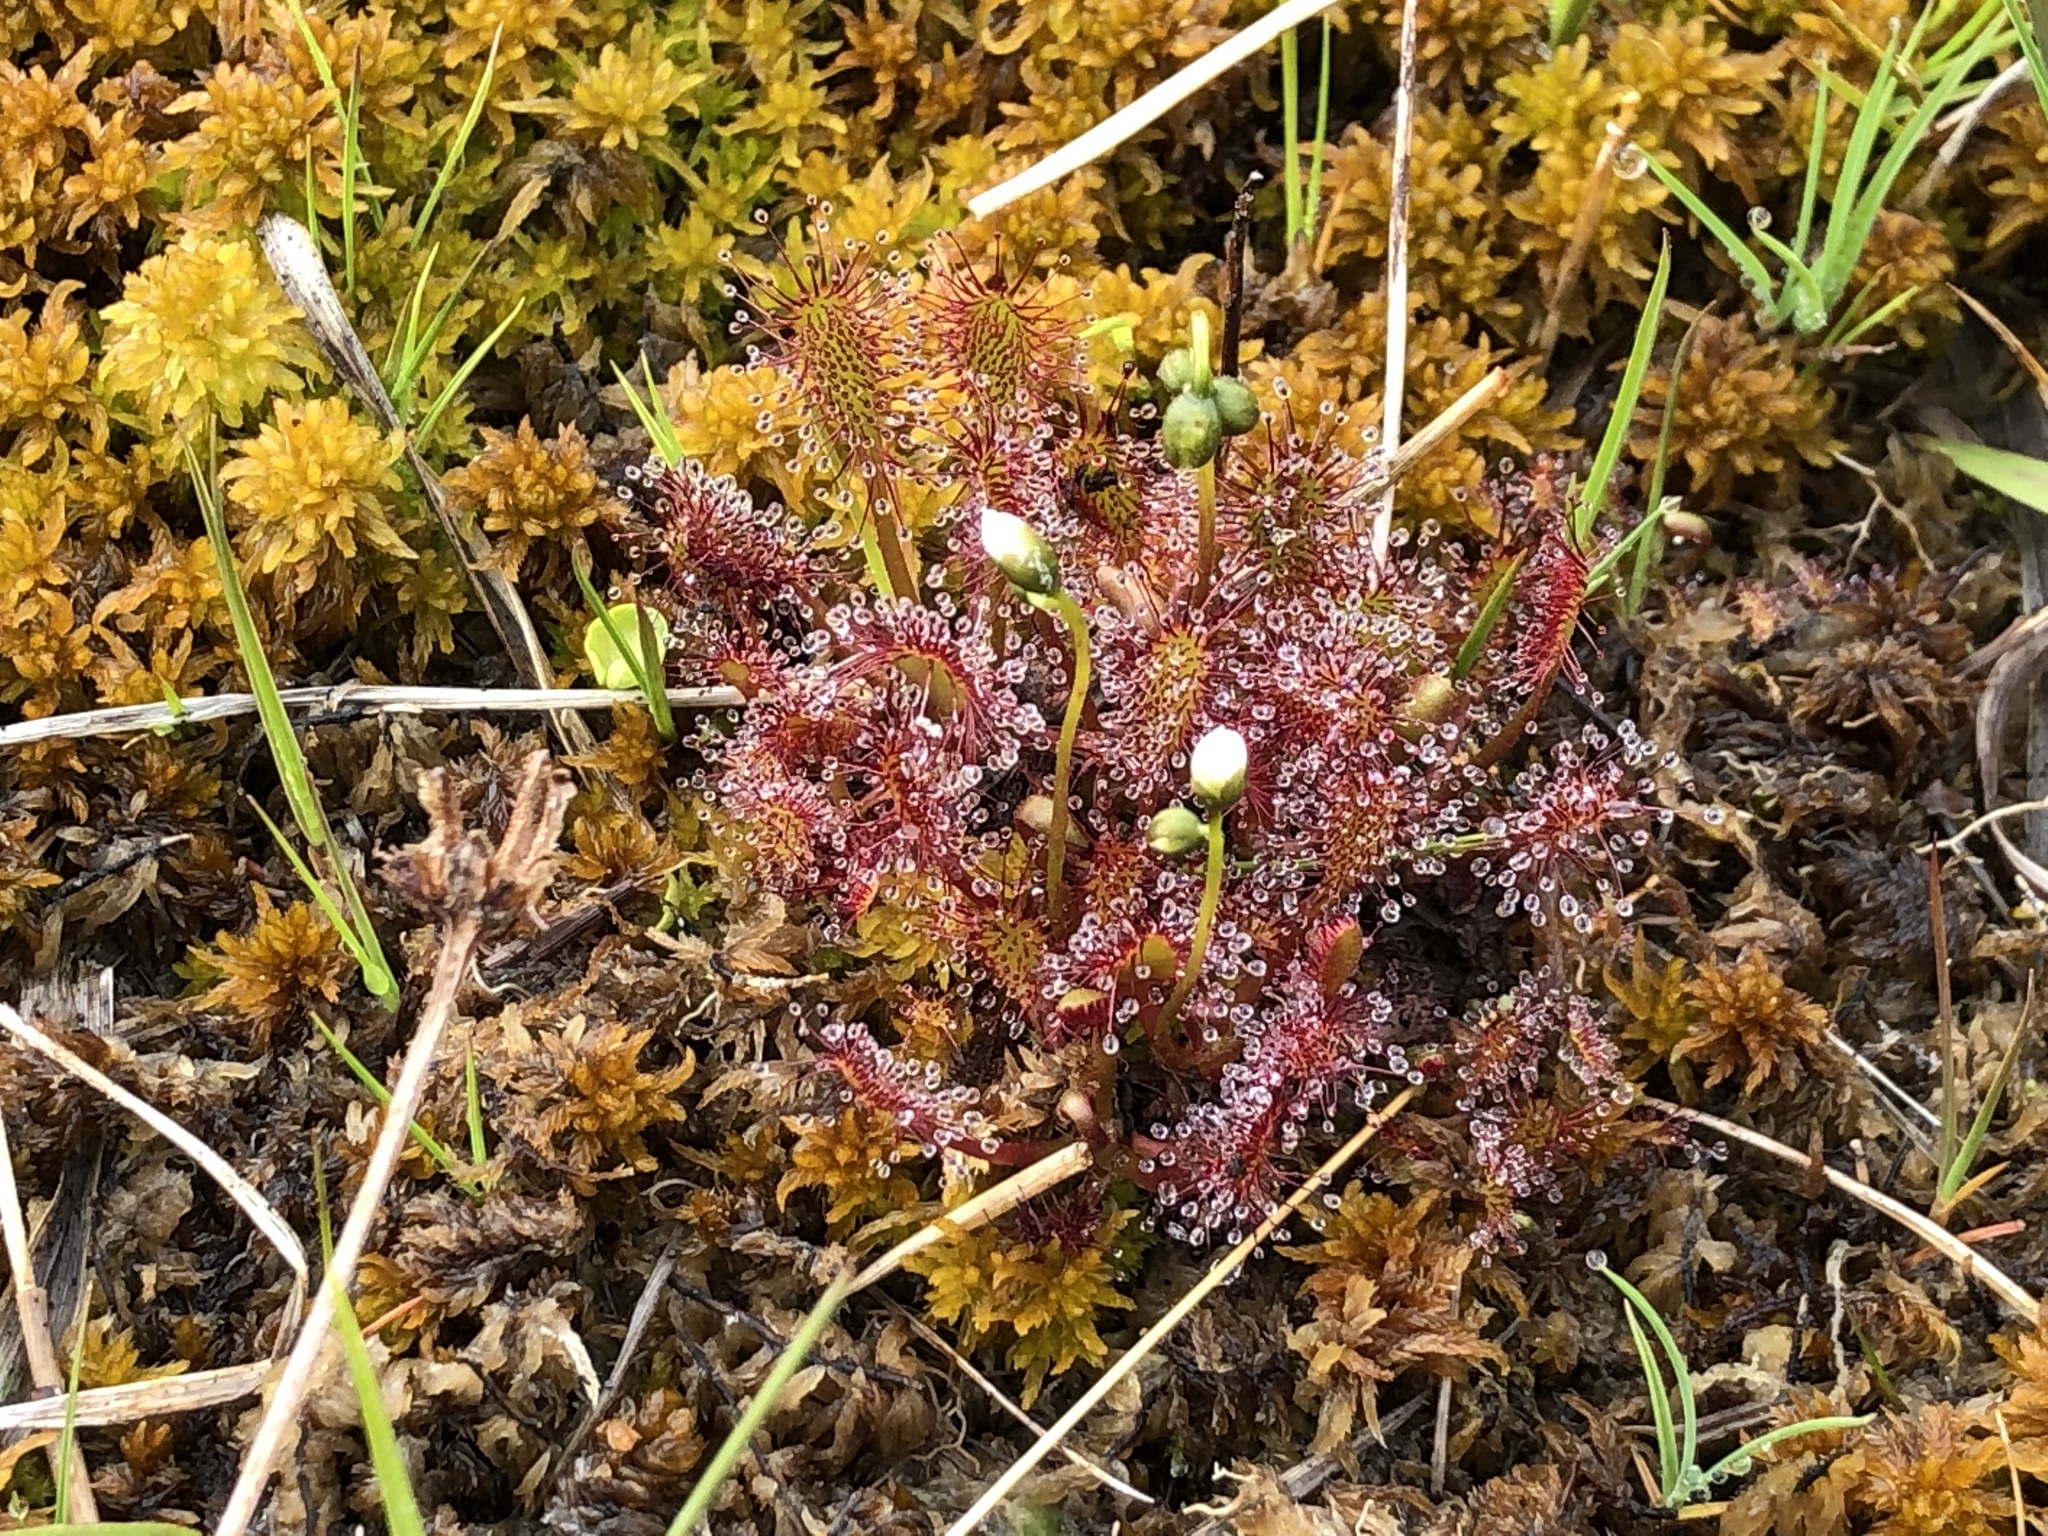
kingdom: Plantae
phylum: Tracheophyta
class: Magnoliopsida
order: Caryophyllales
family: Droseraceae
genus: Drosera
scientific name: Drosera anglica
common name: Great sundew
